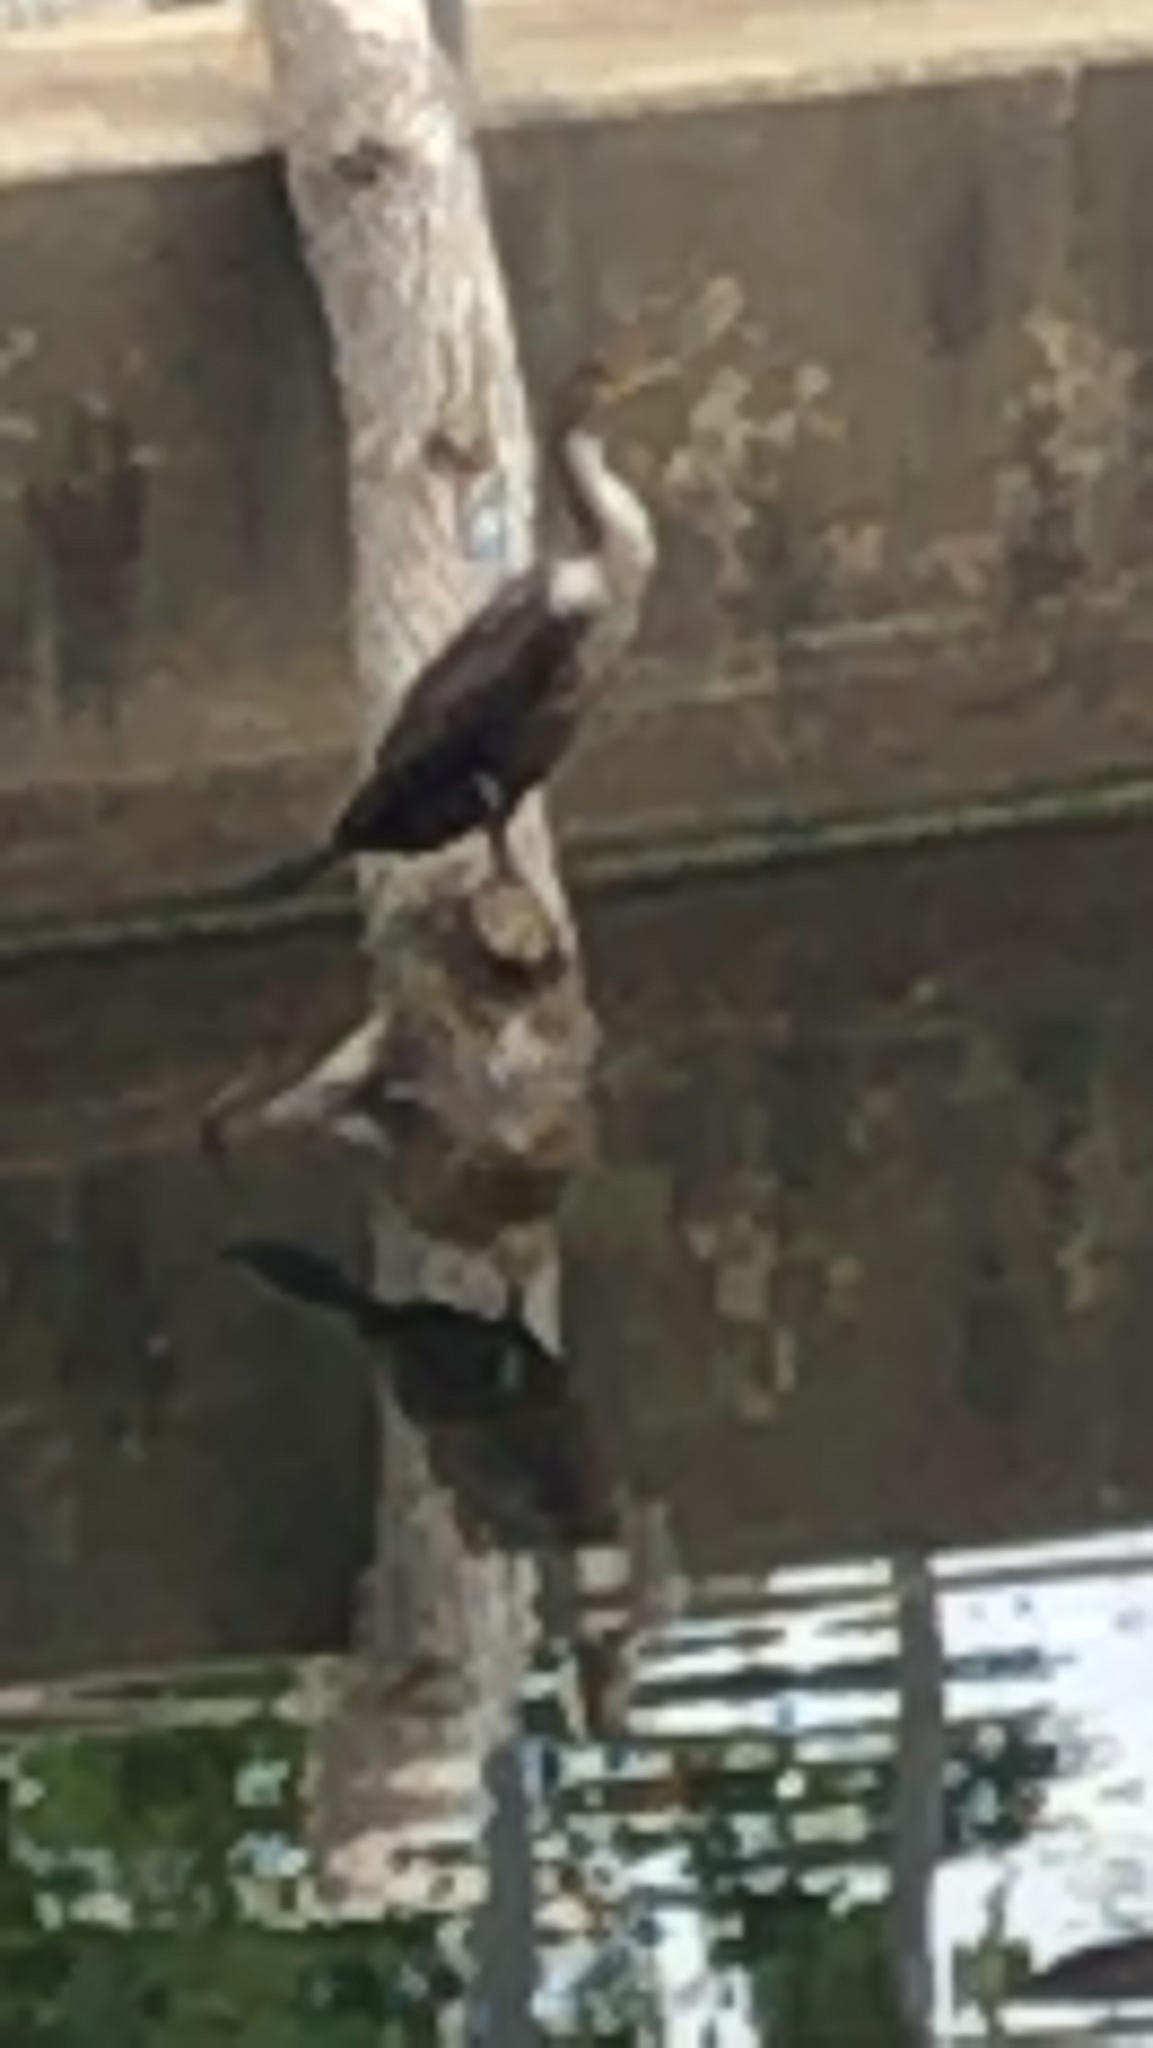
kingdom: Animalia
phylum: Chordata
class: Aves
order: Suliformes
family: Phalacrocoracidae
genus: Phalacrocorax
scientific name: Phalacrocorax auritus
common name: Double-crested cormorant
